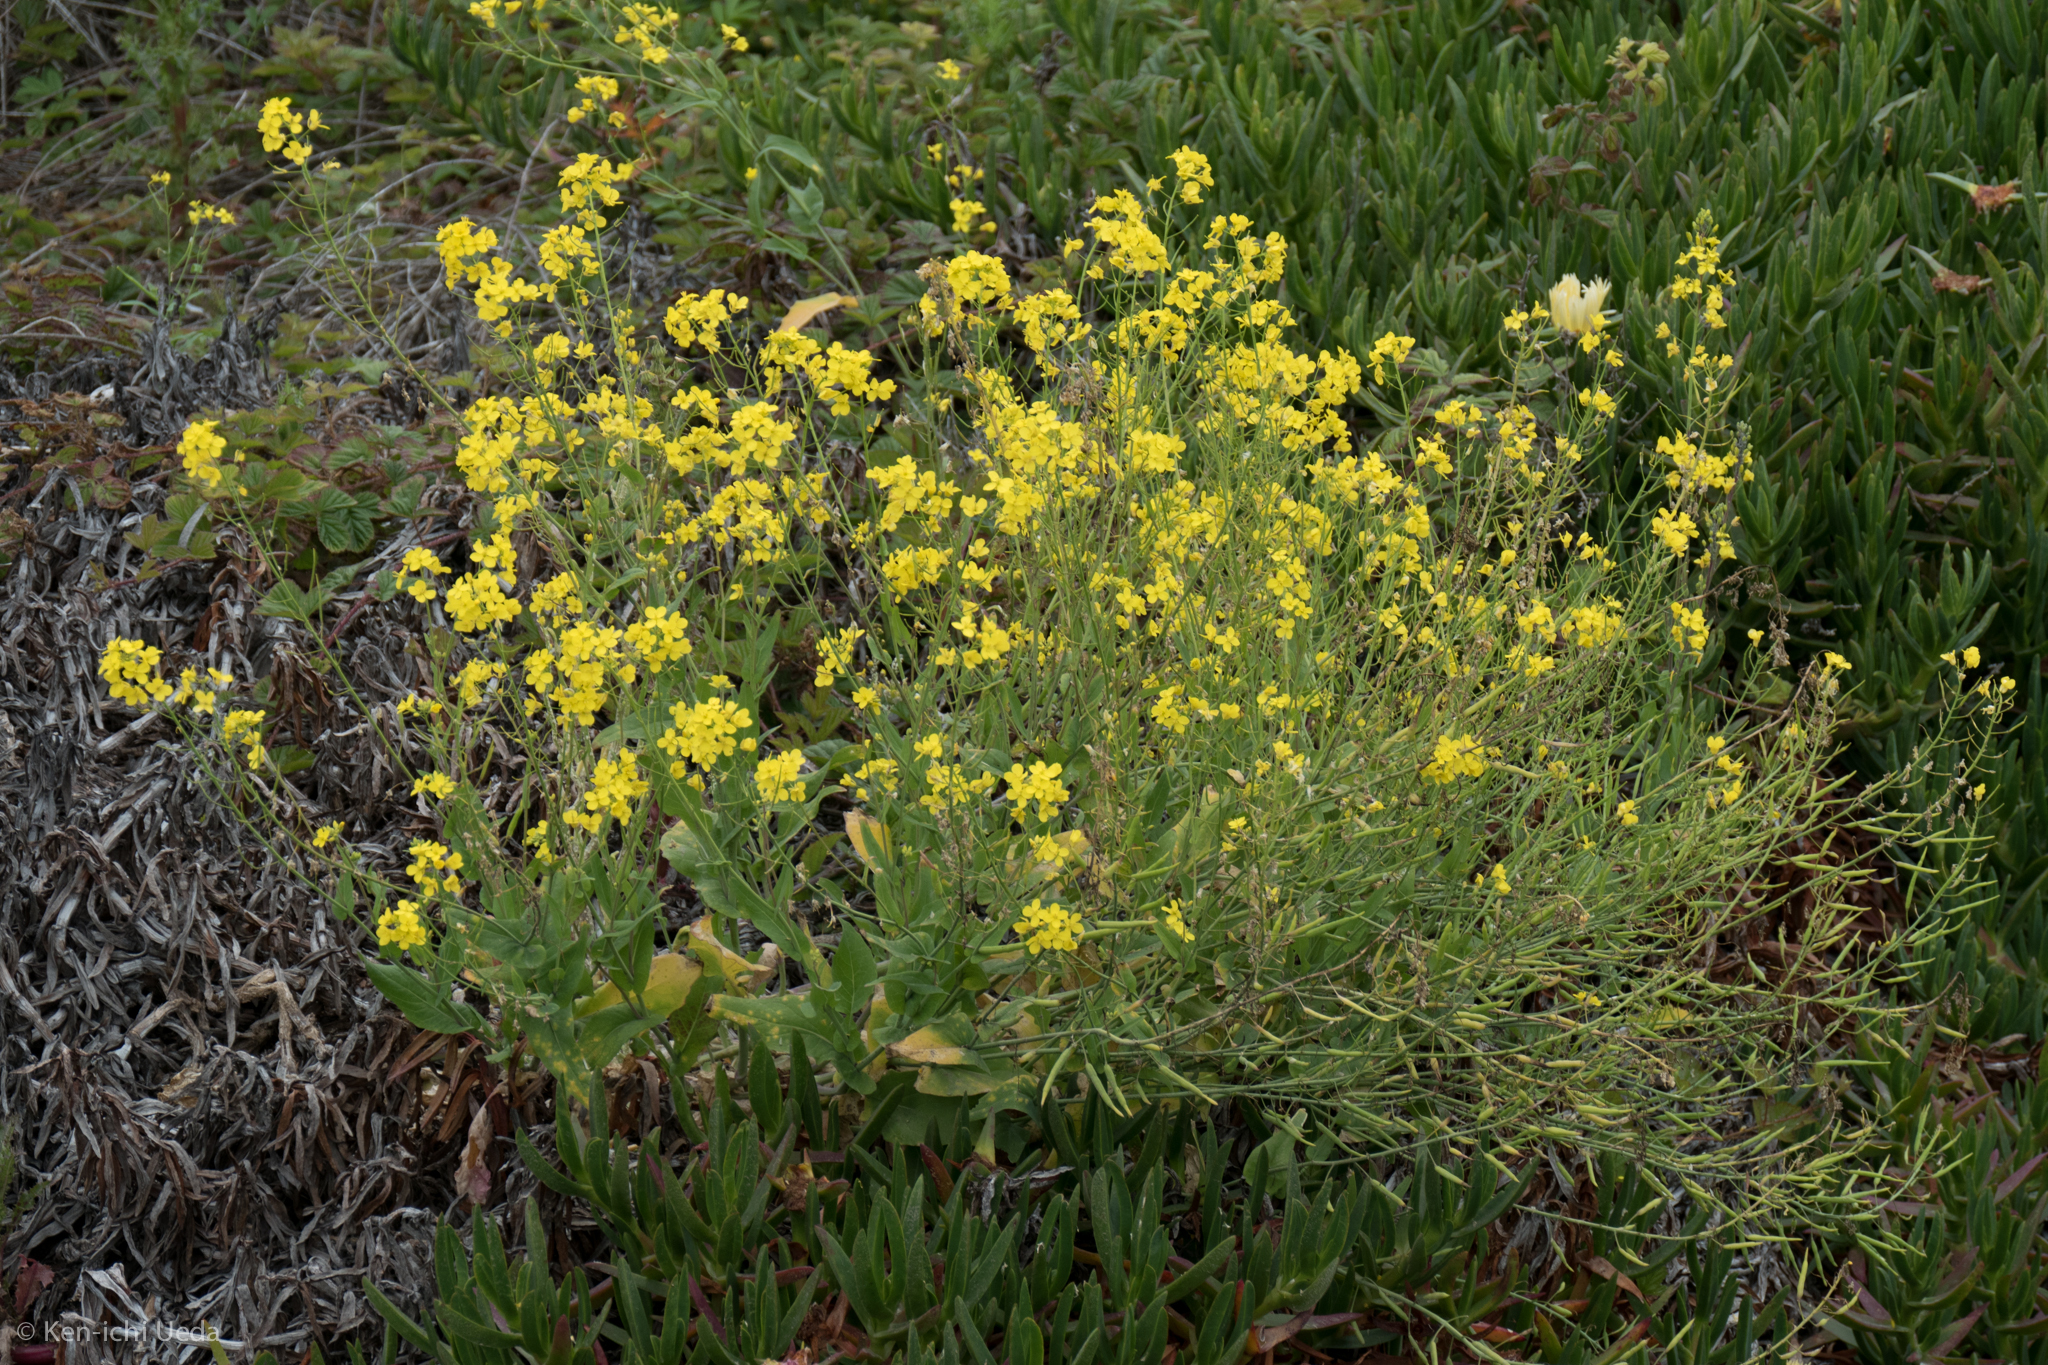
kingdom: Plantae
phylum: Tracheophyta
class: Magnoliopsida
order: Brassicales
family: Brassicaceae
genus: Brassica
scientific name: Brassica rapa
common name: Field mustard
